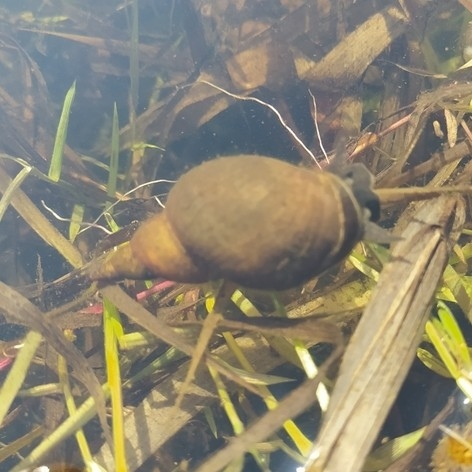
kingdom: Animalia
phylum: Mollusca
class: Gastropoda
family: Lymnaeidae
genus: Lymnaea
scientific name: Lymnaea stagnalis
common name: Great pond snail
